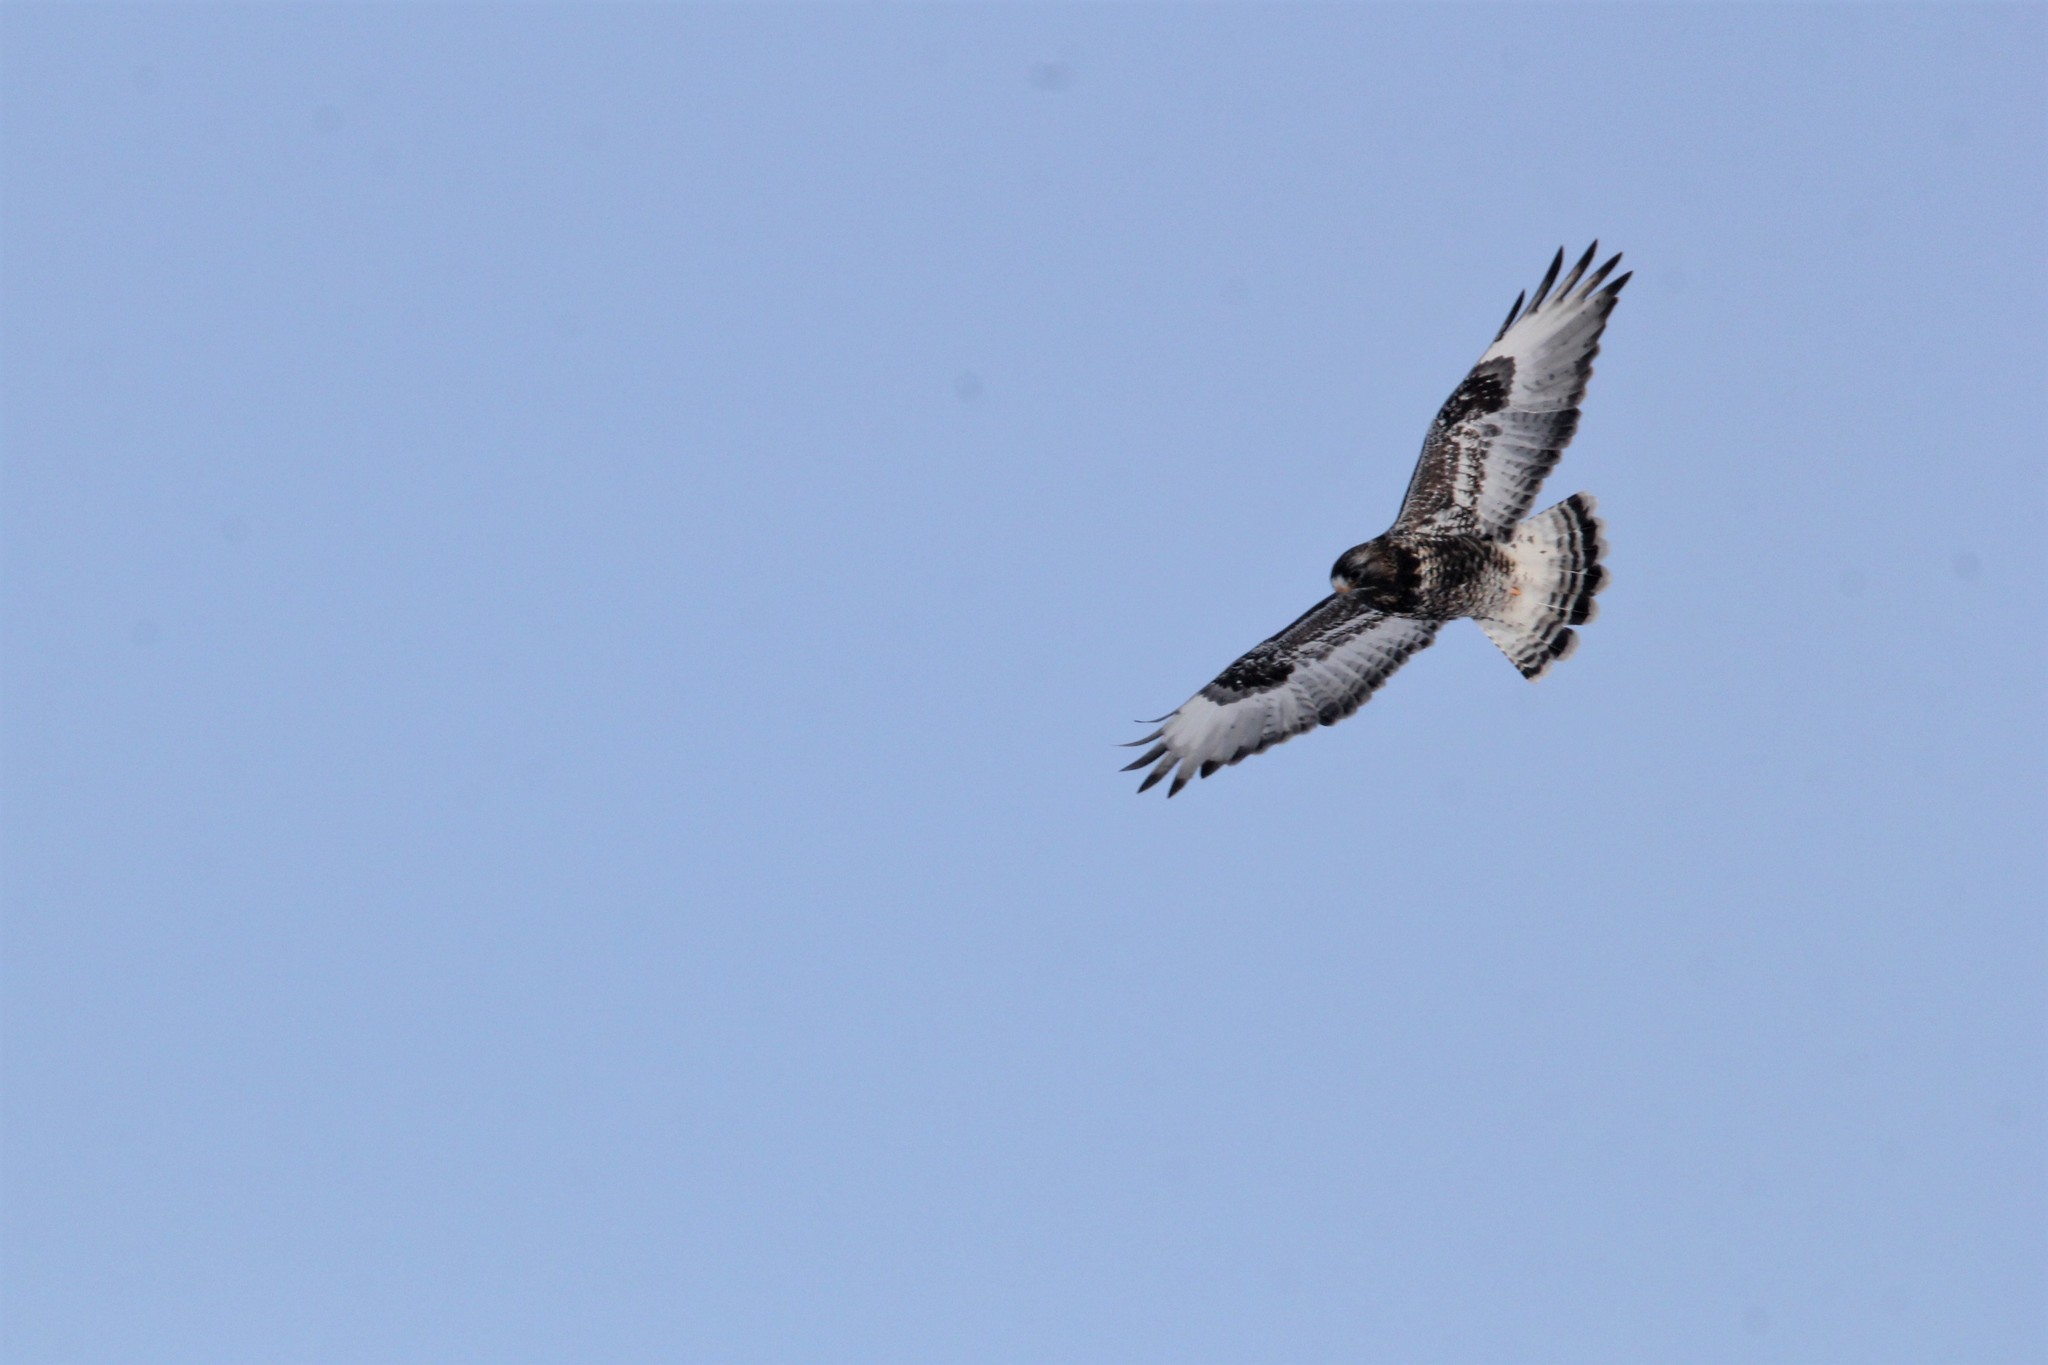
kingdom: Animalia
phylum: Chordata
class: Aves
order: Accipitriformes
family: Accipitridae
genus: Buteo
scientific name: Buteo lagopus
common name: Rough-legged buzzard
